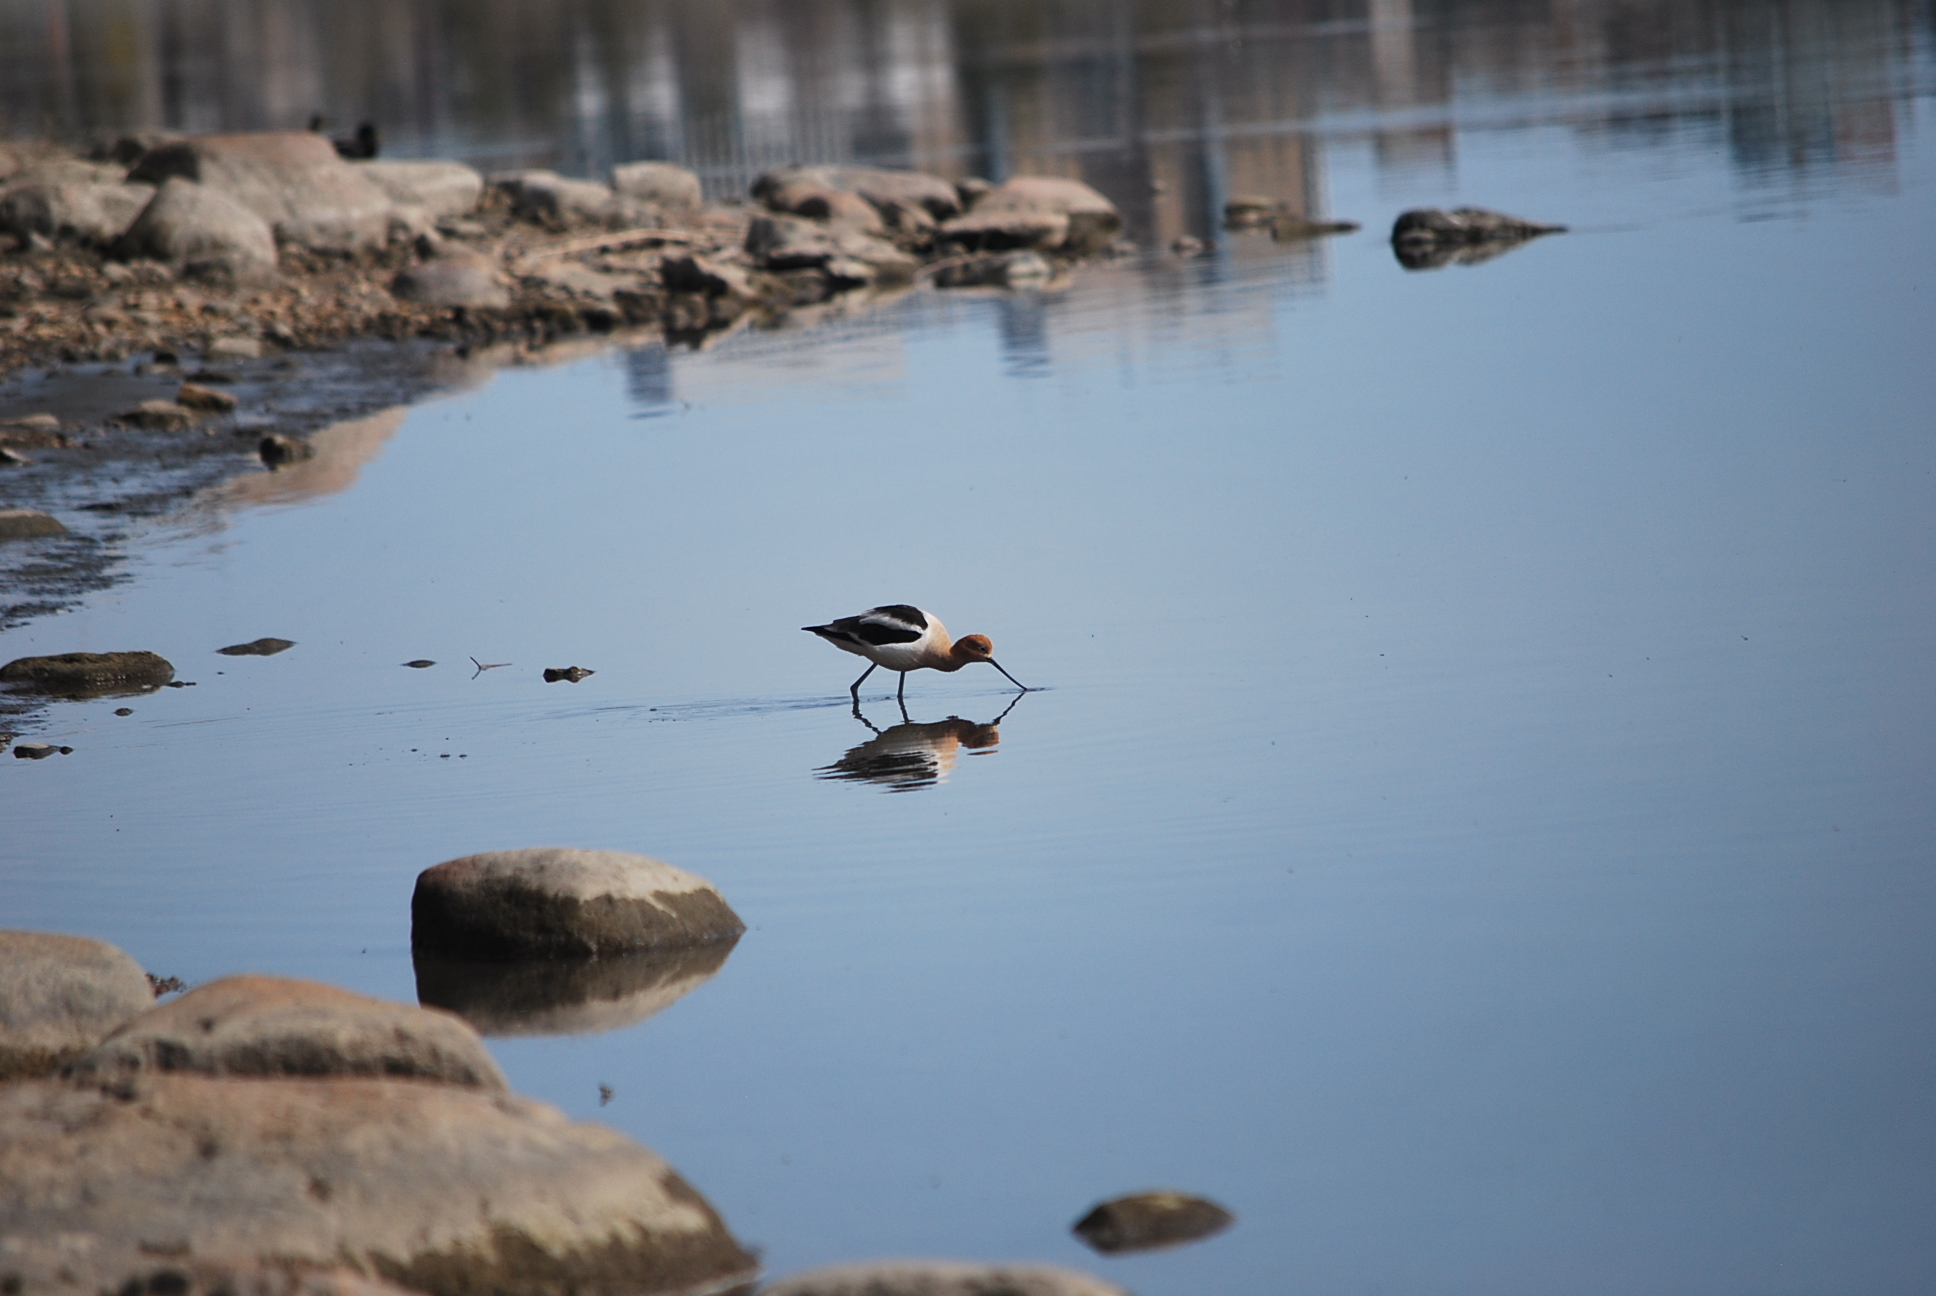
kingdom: Animalia
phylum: Chordata
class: Aves
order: Charadriiformes
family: Recurvirostridae
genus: Recurvirostra
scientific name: Recurvirostra americana
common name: American avocet
